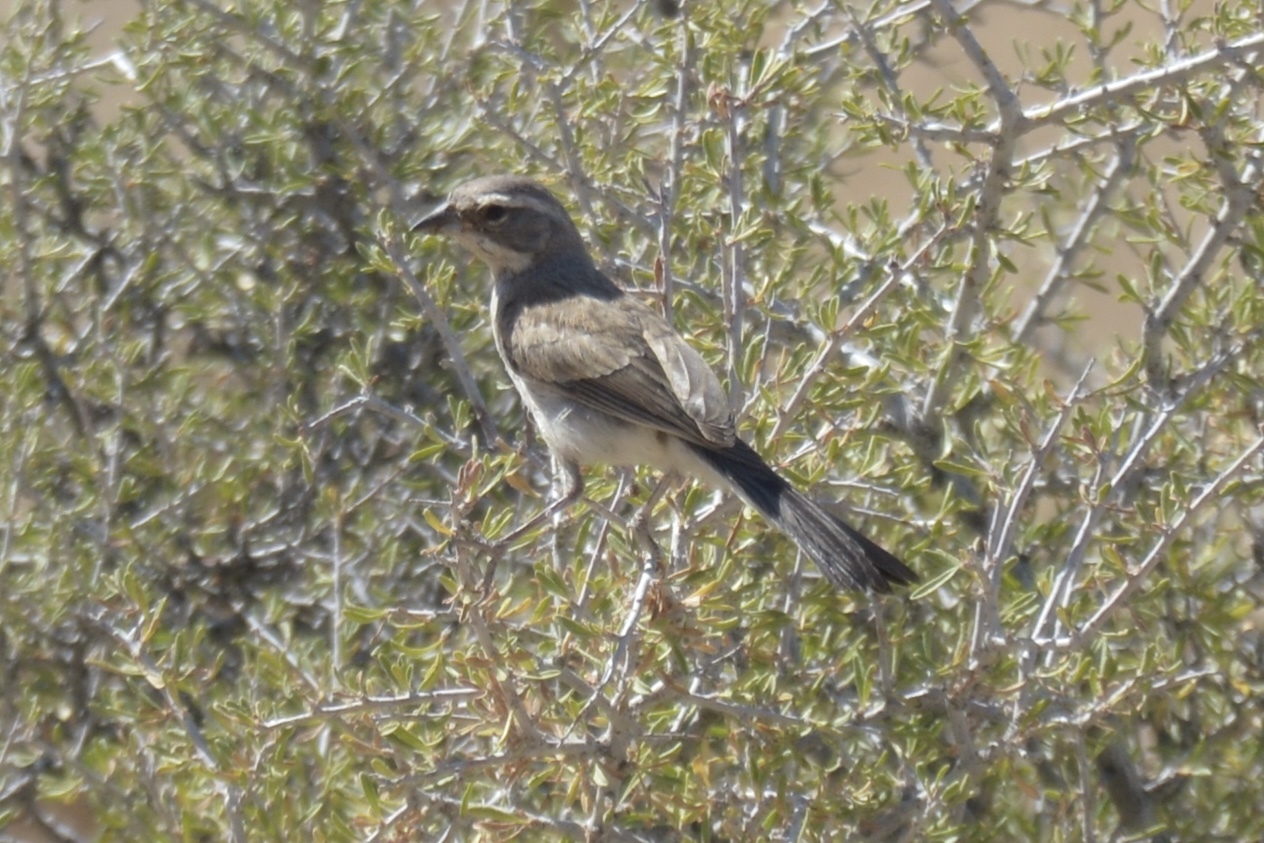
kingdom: Animalia
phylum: Chordata
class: Aves
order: Passeriformes
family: Passerellidae
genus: Amphispiza
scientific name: Amphispiza bilineata
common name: Black-throated sparrow
